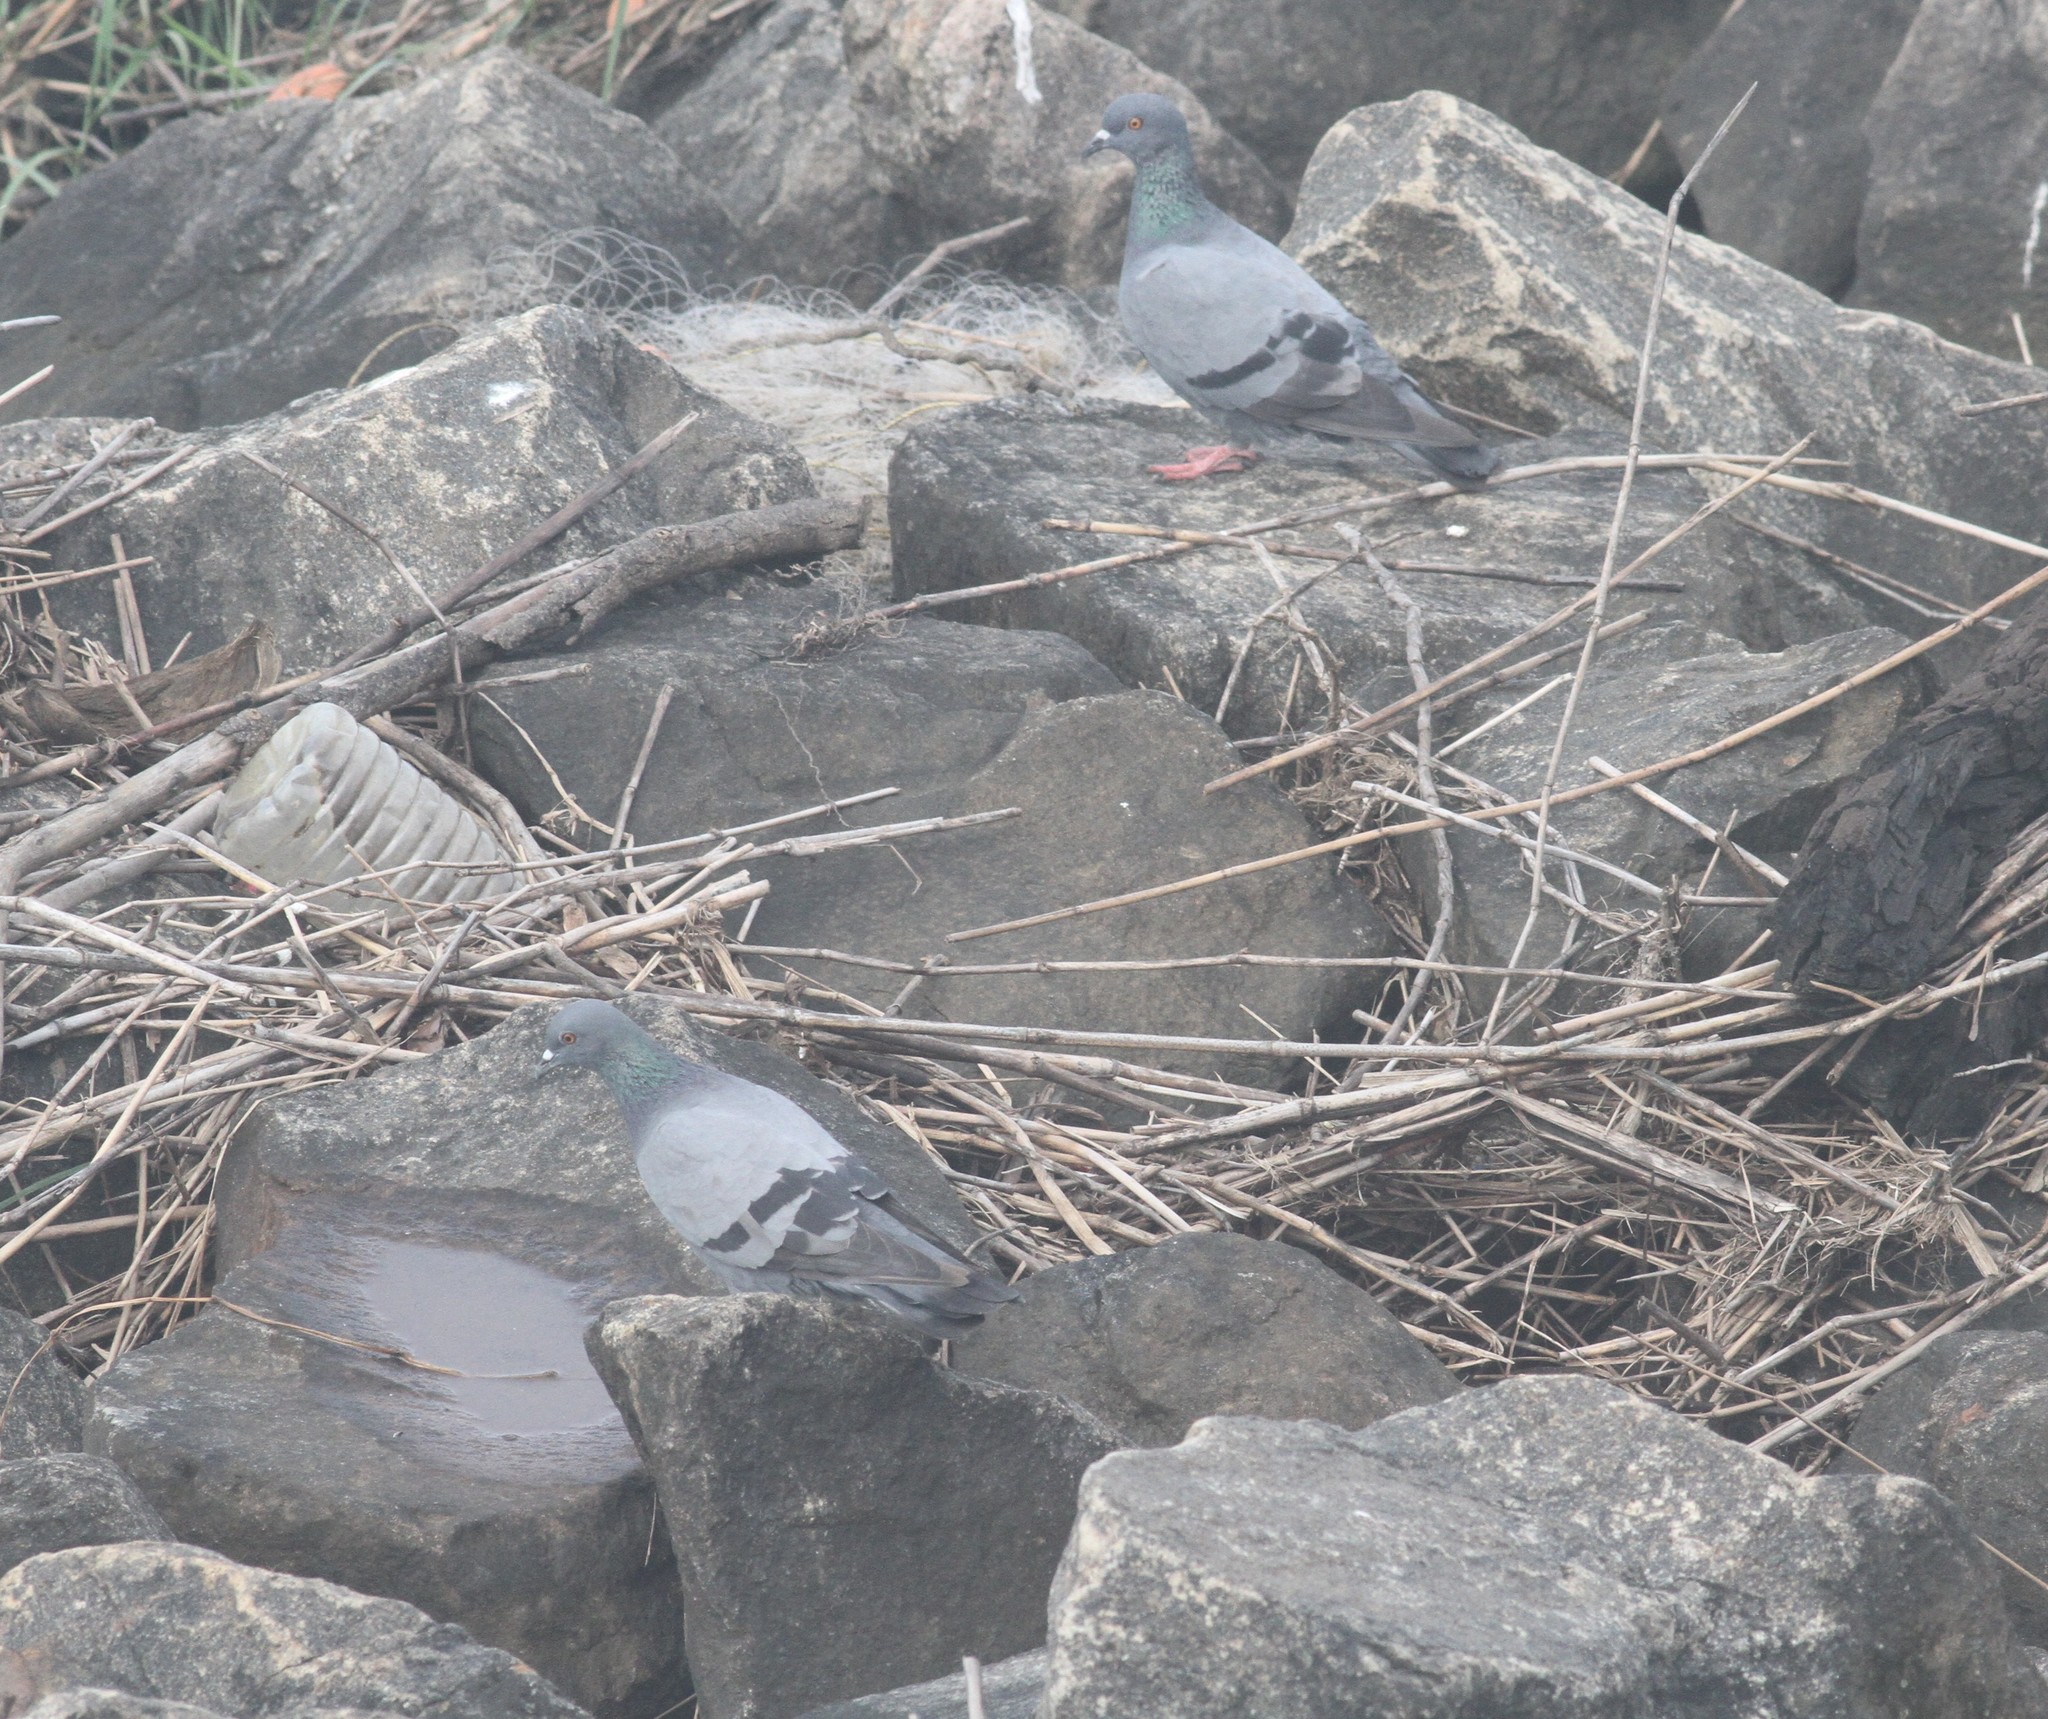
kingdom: Animalia
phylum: Chordata
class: Aves
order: Columbiformes
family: Columbidae
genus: Columba
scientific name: Columba livia
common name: Rock pigeon
